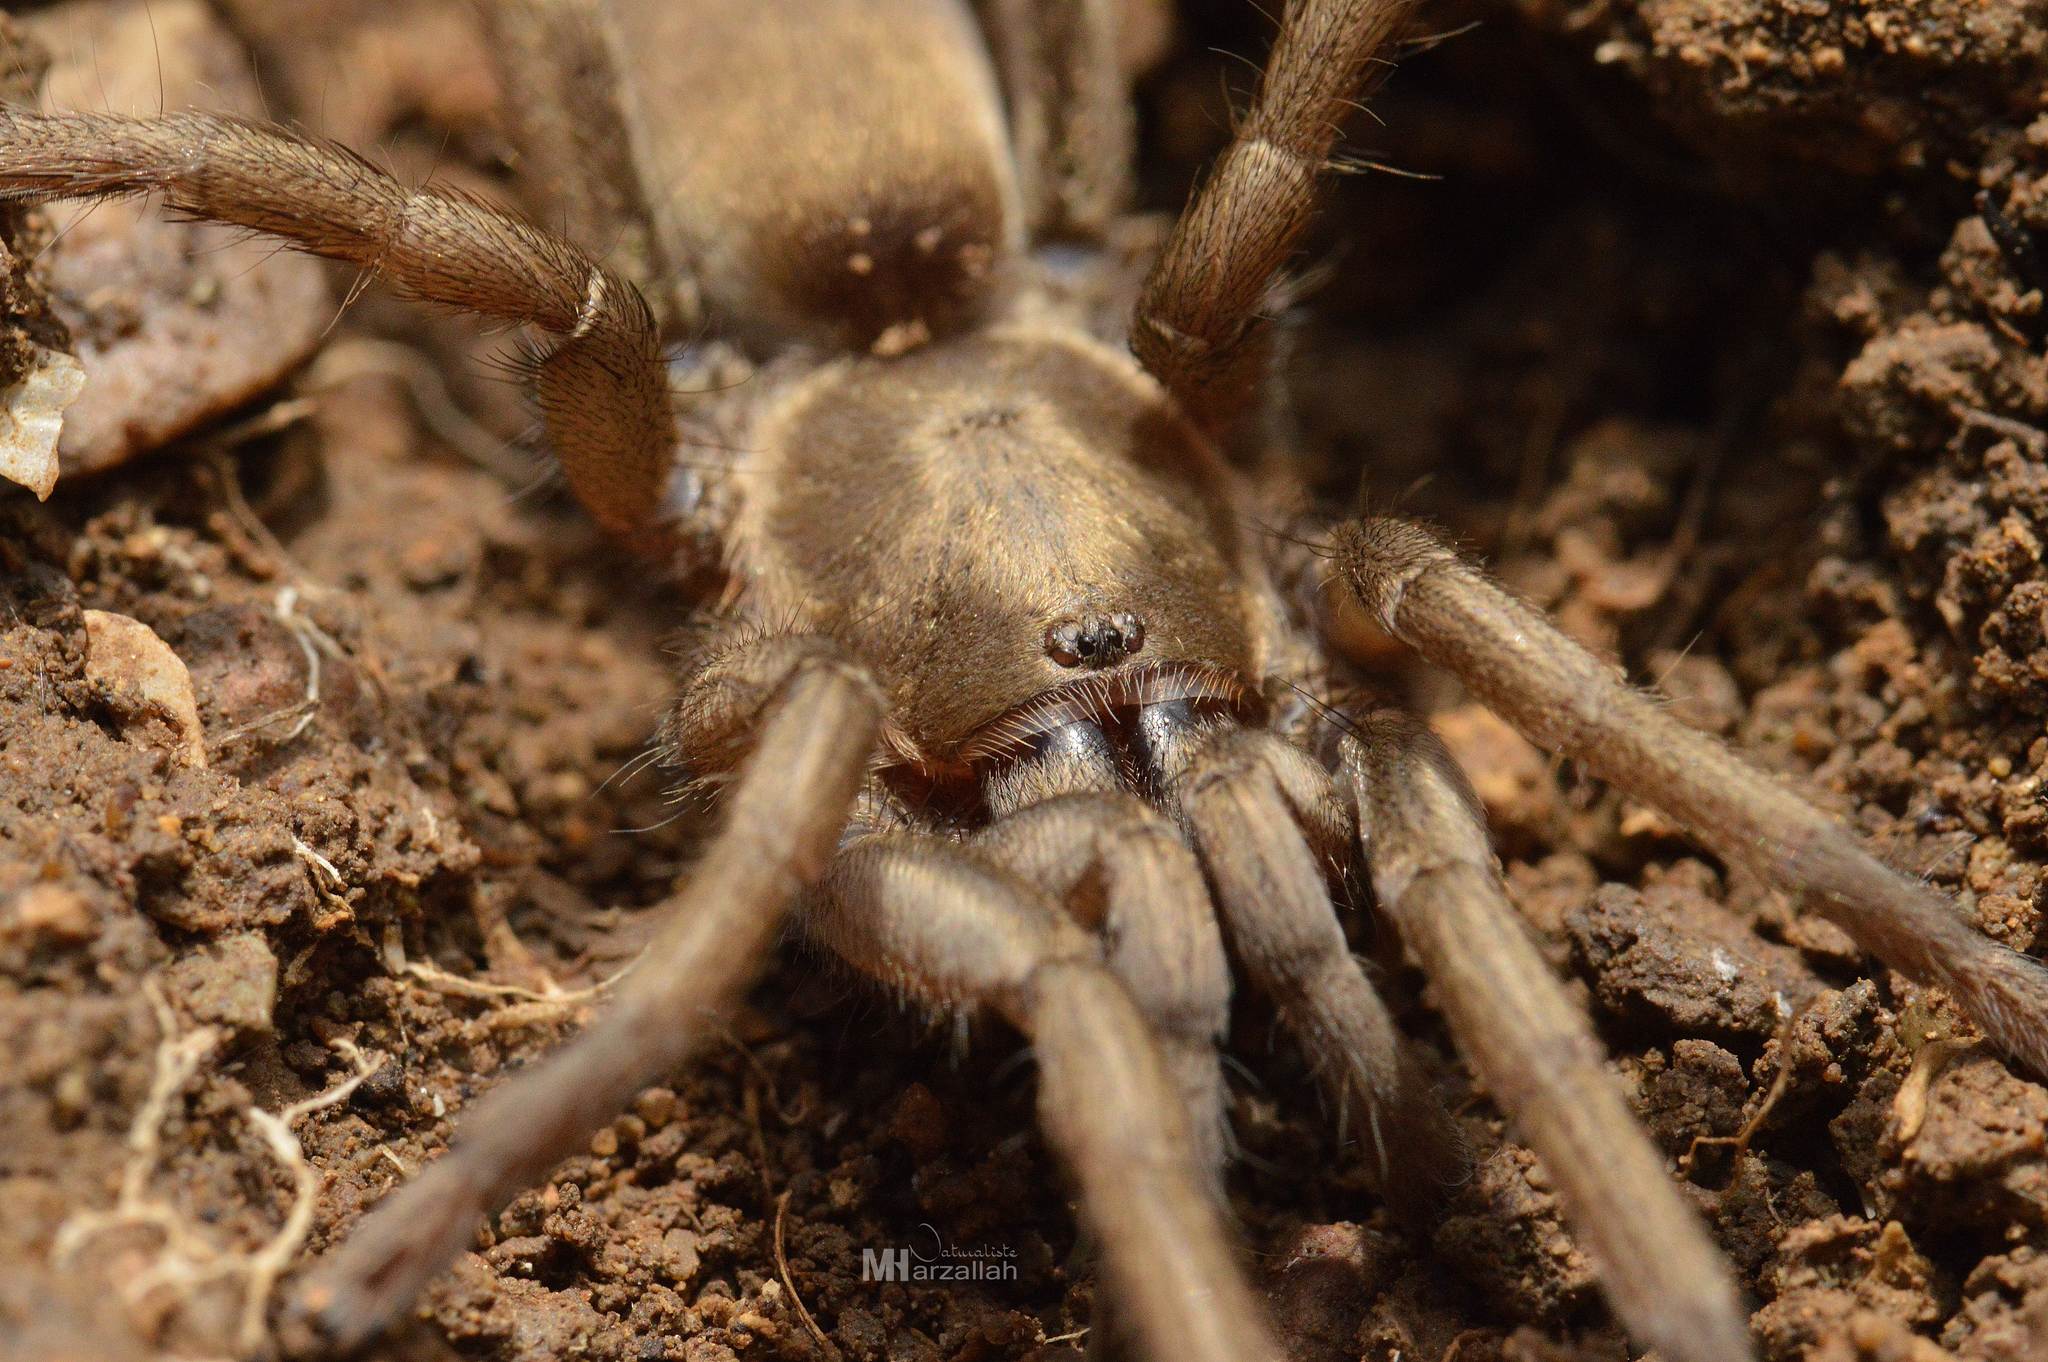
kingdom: Animalia
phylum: Arthropoda
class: Arachnida
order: Araneae
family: Theraphosidae
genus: Ischnocolus
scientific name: Ischnocolus valentinus
